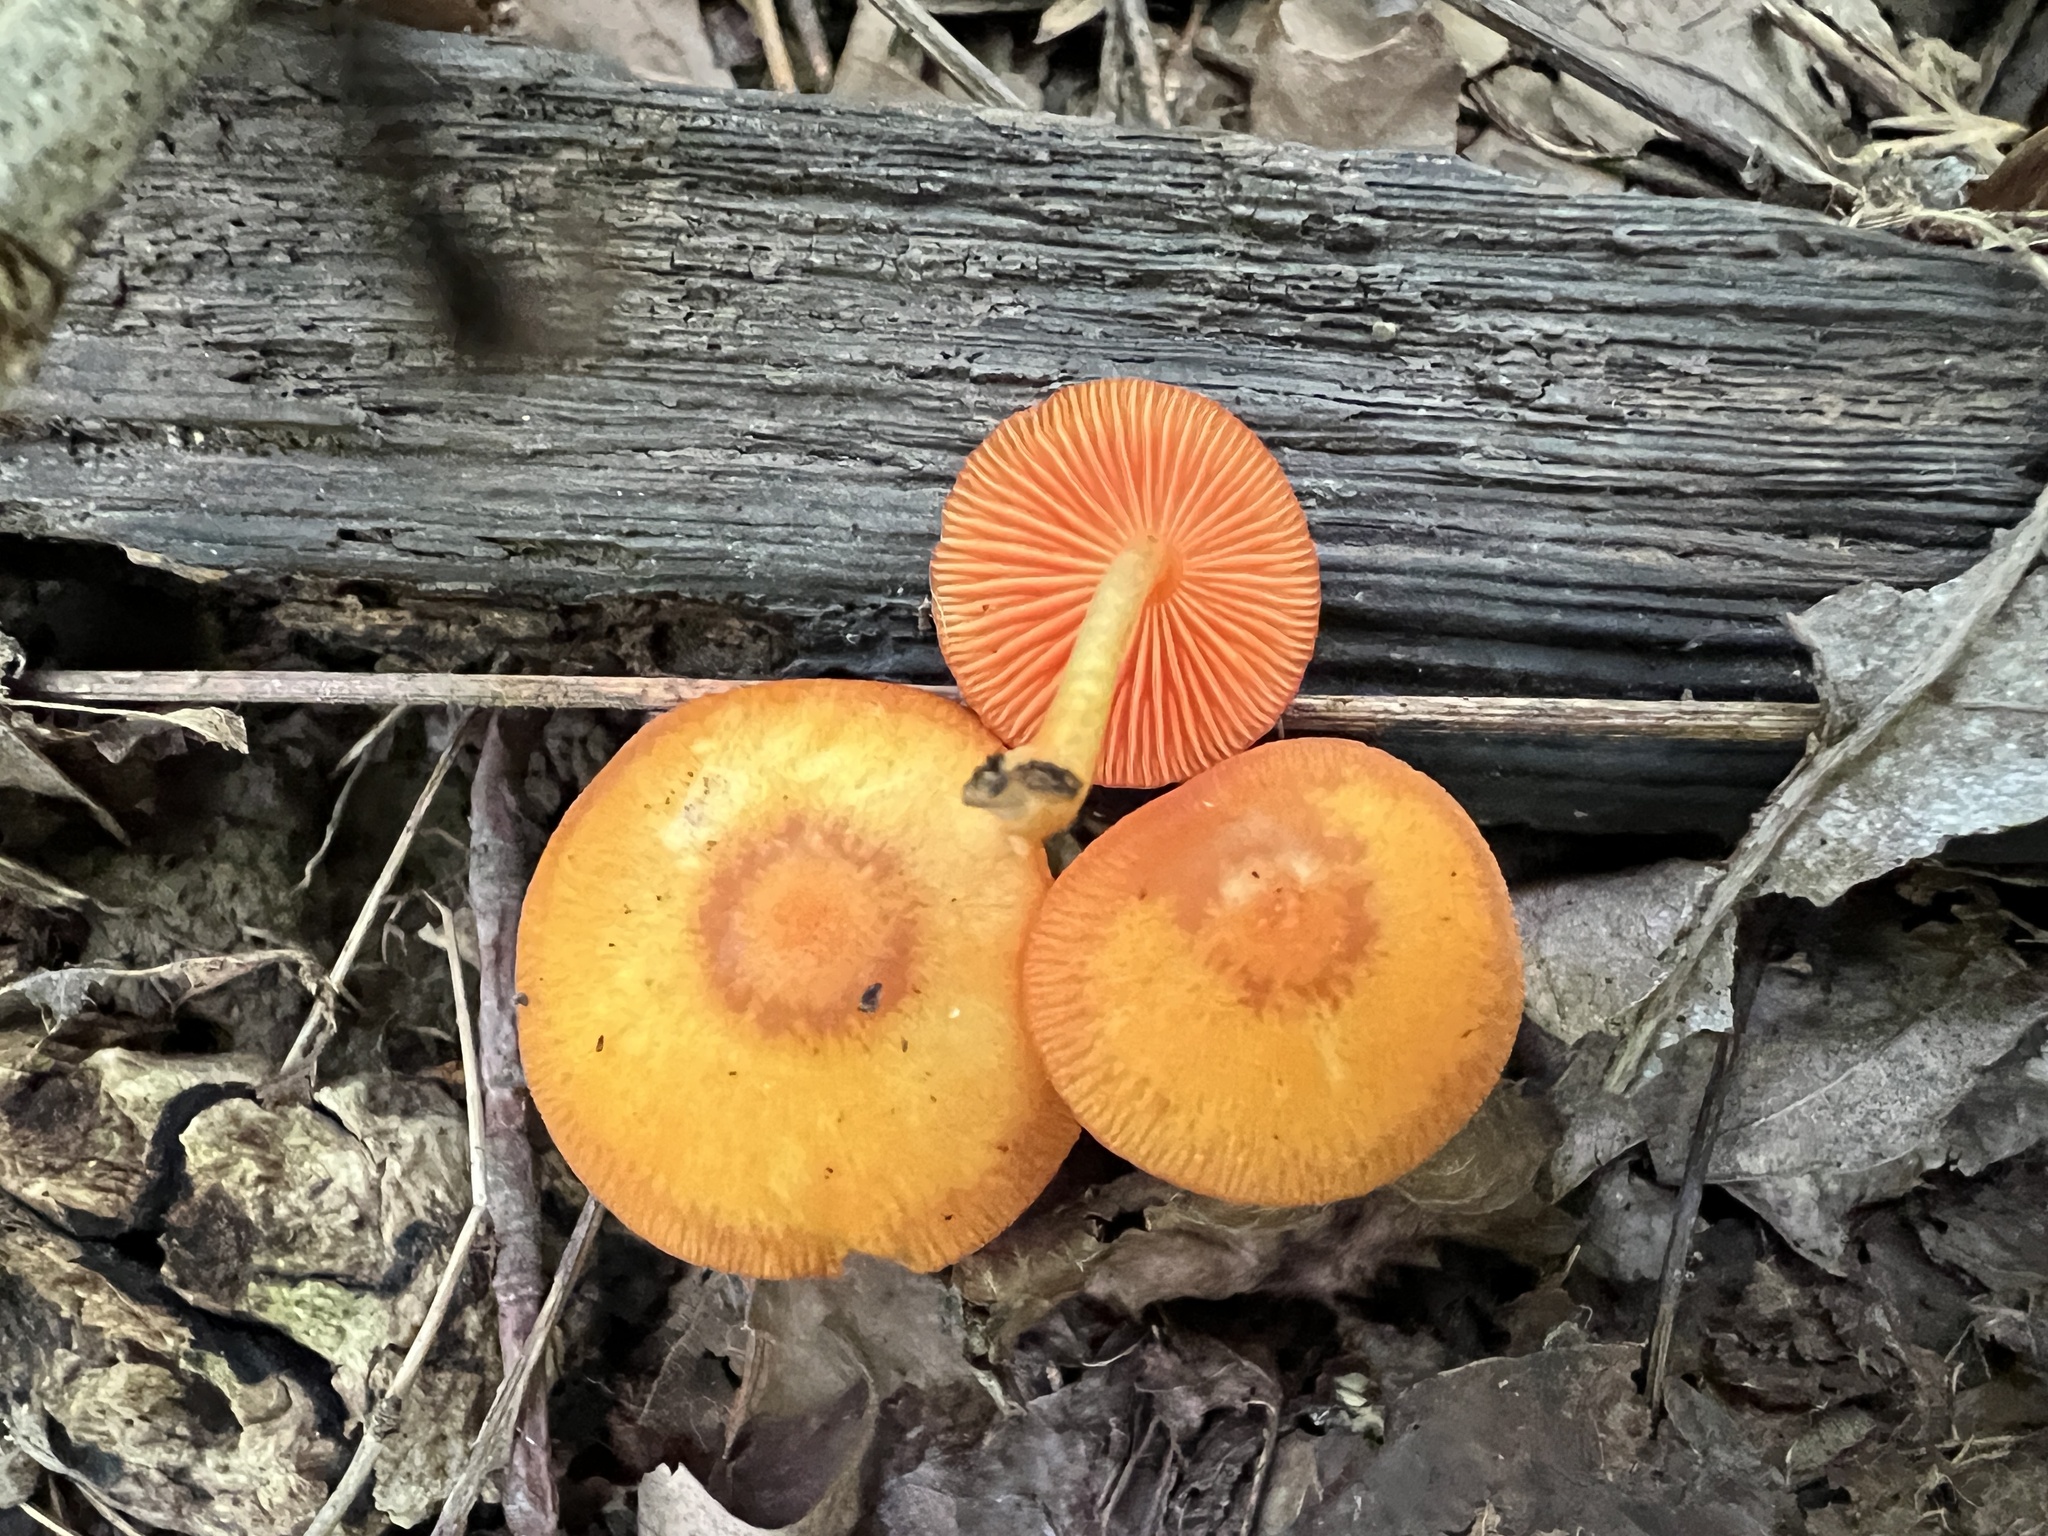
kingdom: Fungi
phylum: Basidiomycota
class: Agaricomycetes
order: Agaricales
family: Mycenaceae
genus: Mycena
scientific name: Mycena leaiana
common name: Orange mycena
